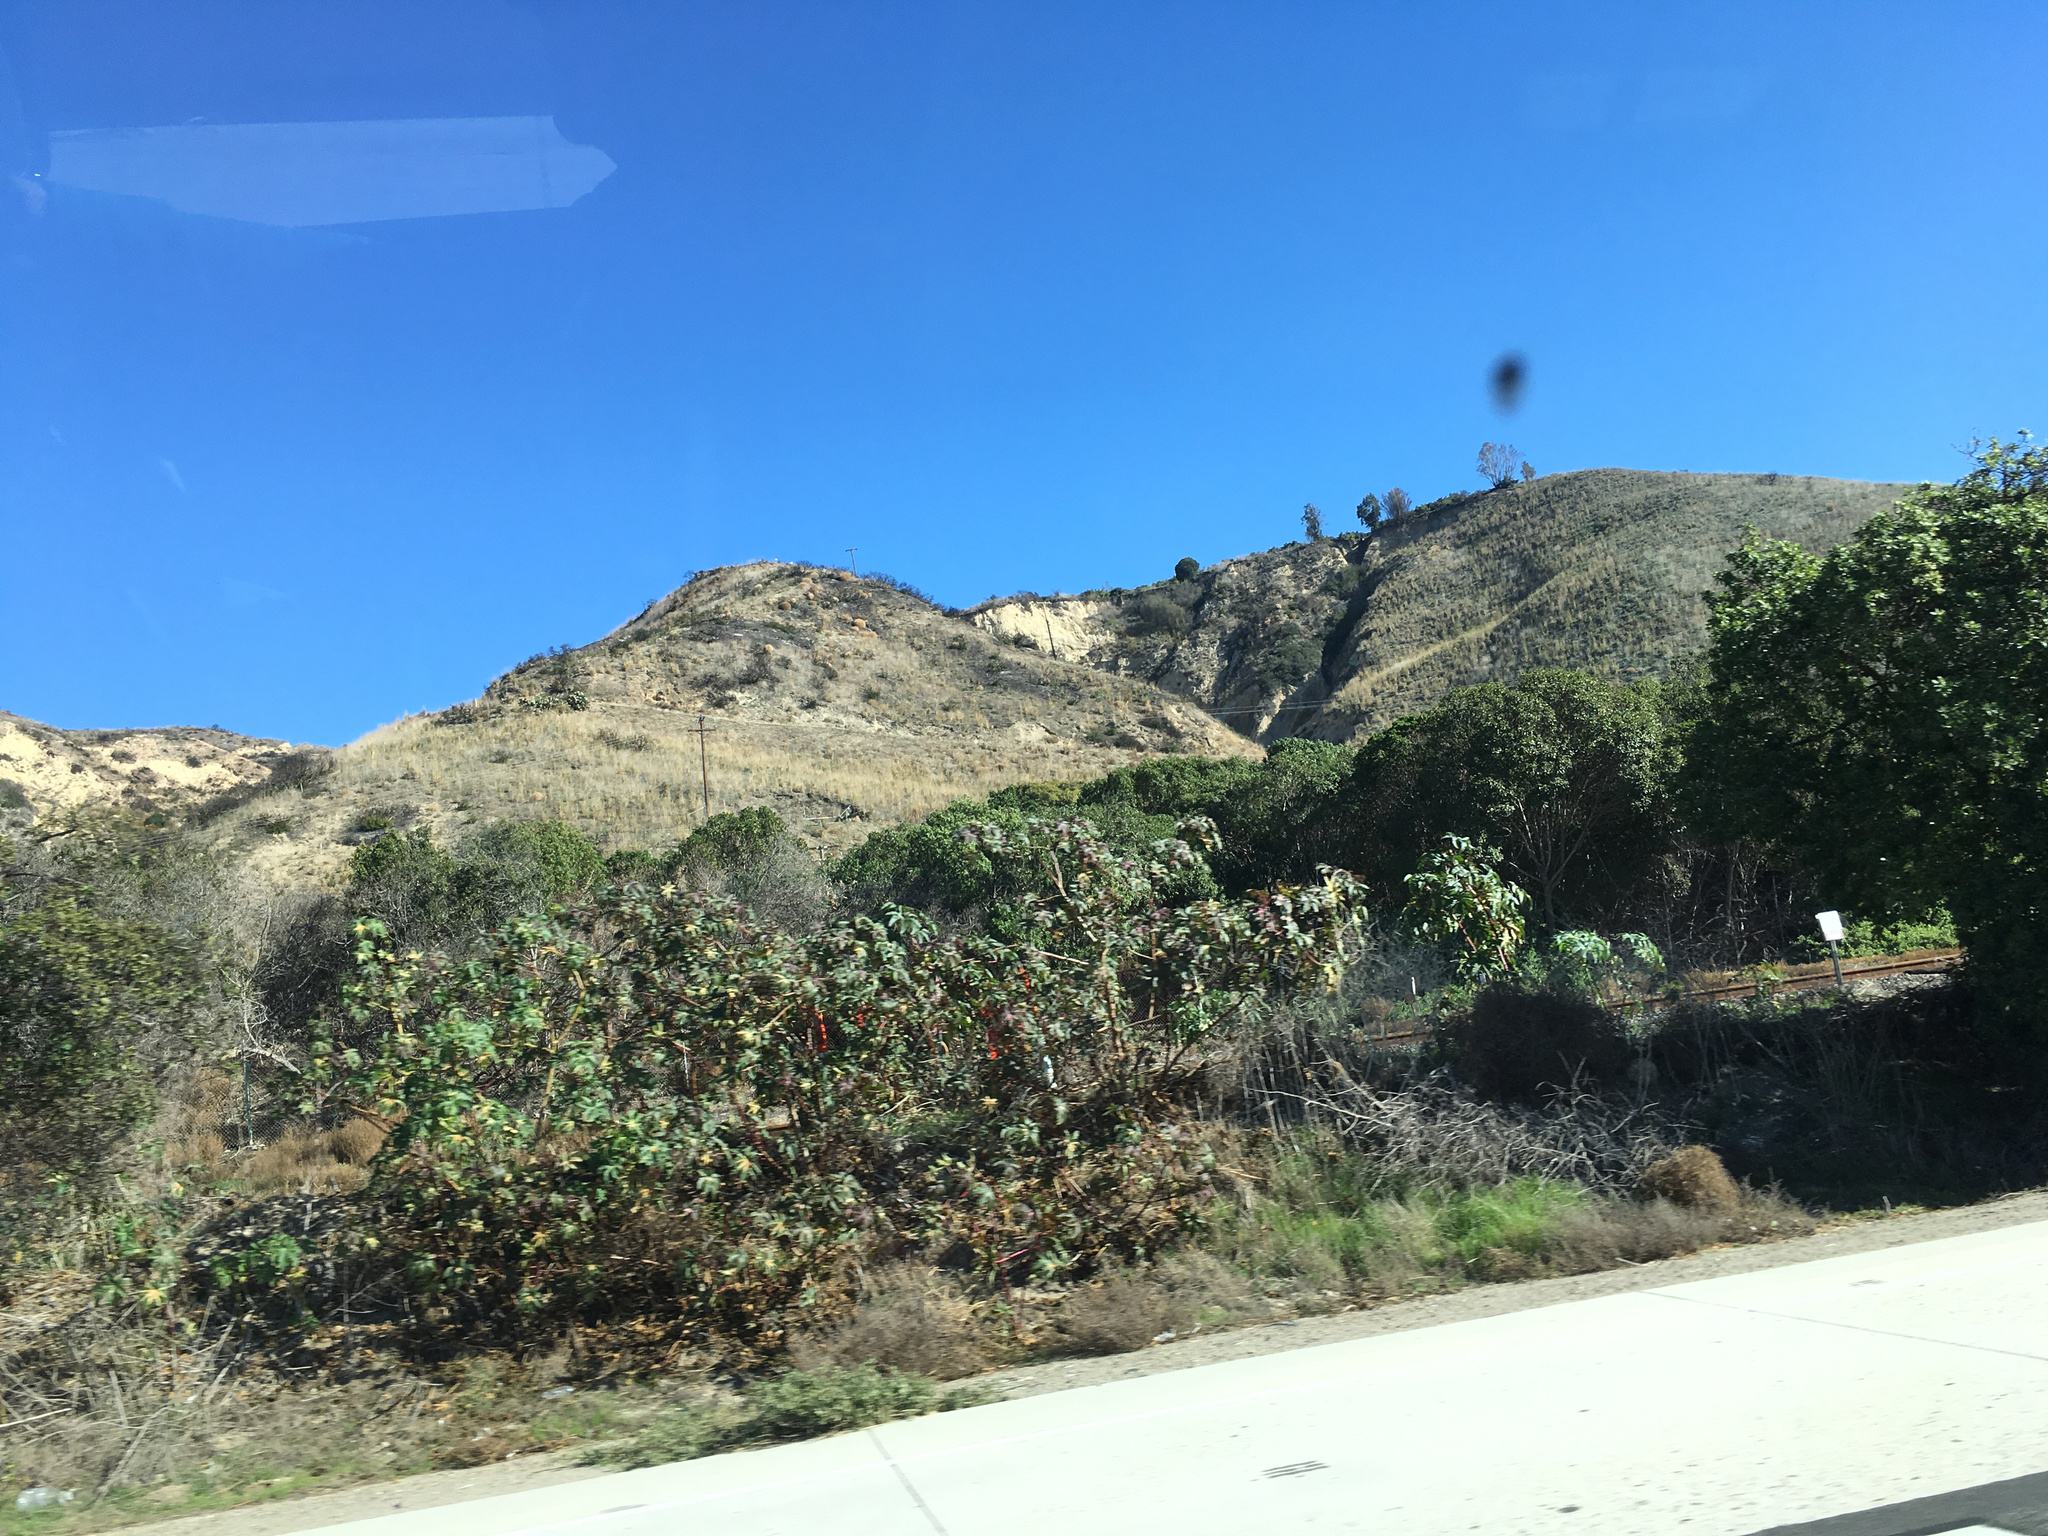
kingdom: Plantae
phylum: Tracheophyta
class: Magnoliopsida
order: Malpighiales
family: Euphorbiaceae
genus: Ricinus
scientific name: Ricinus communis
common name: Castor-oil-plant
